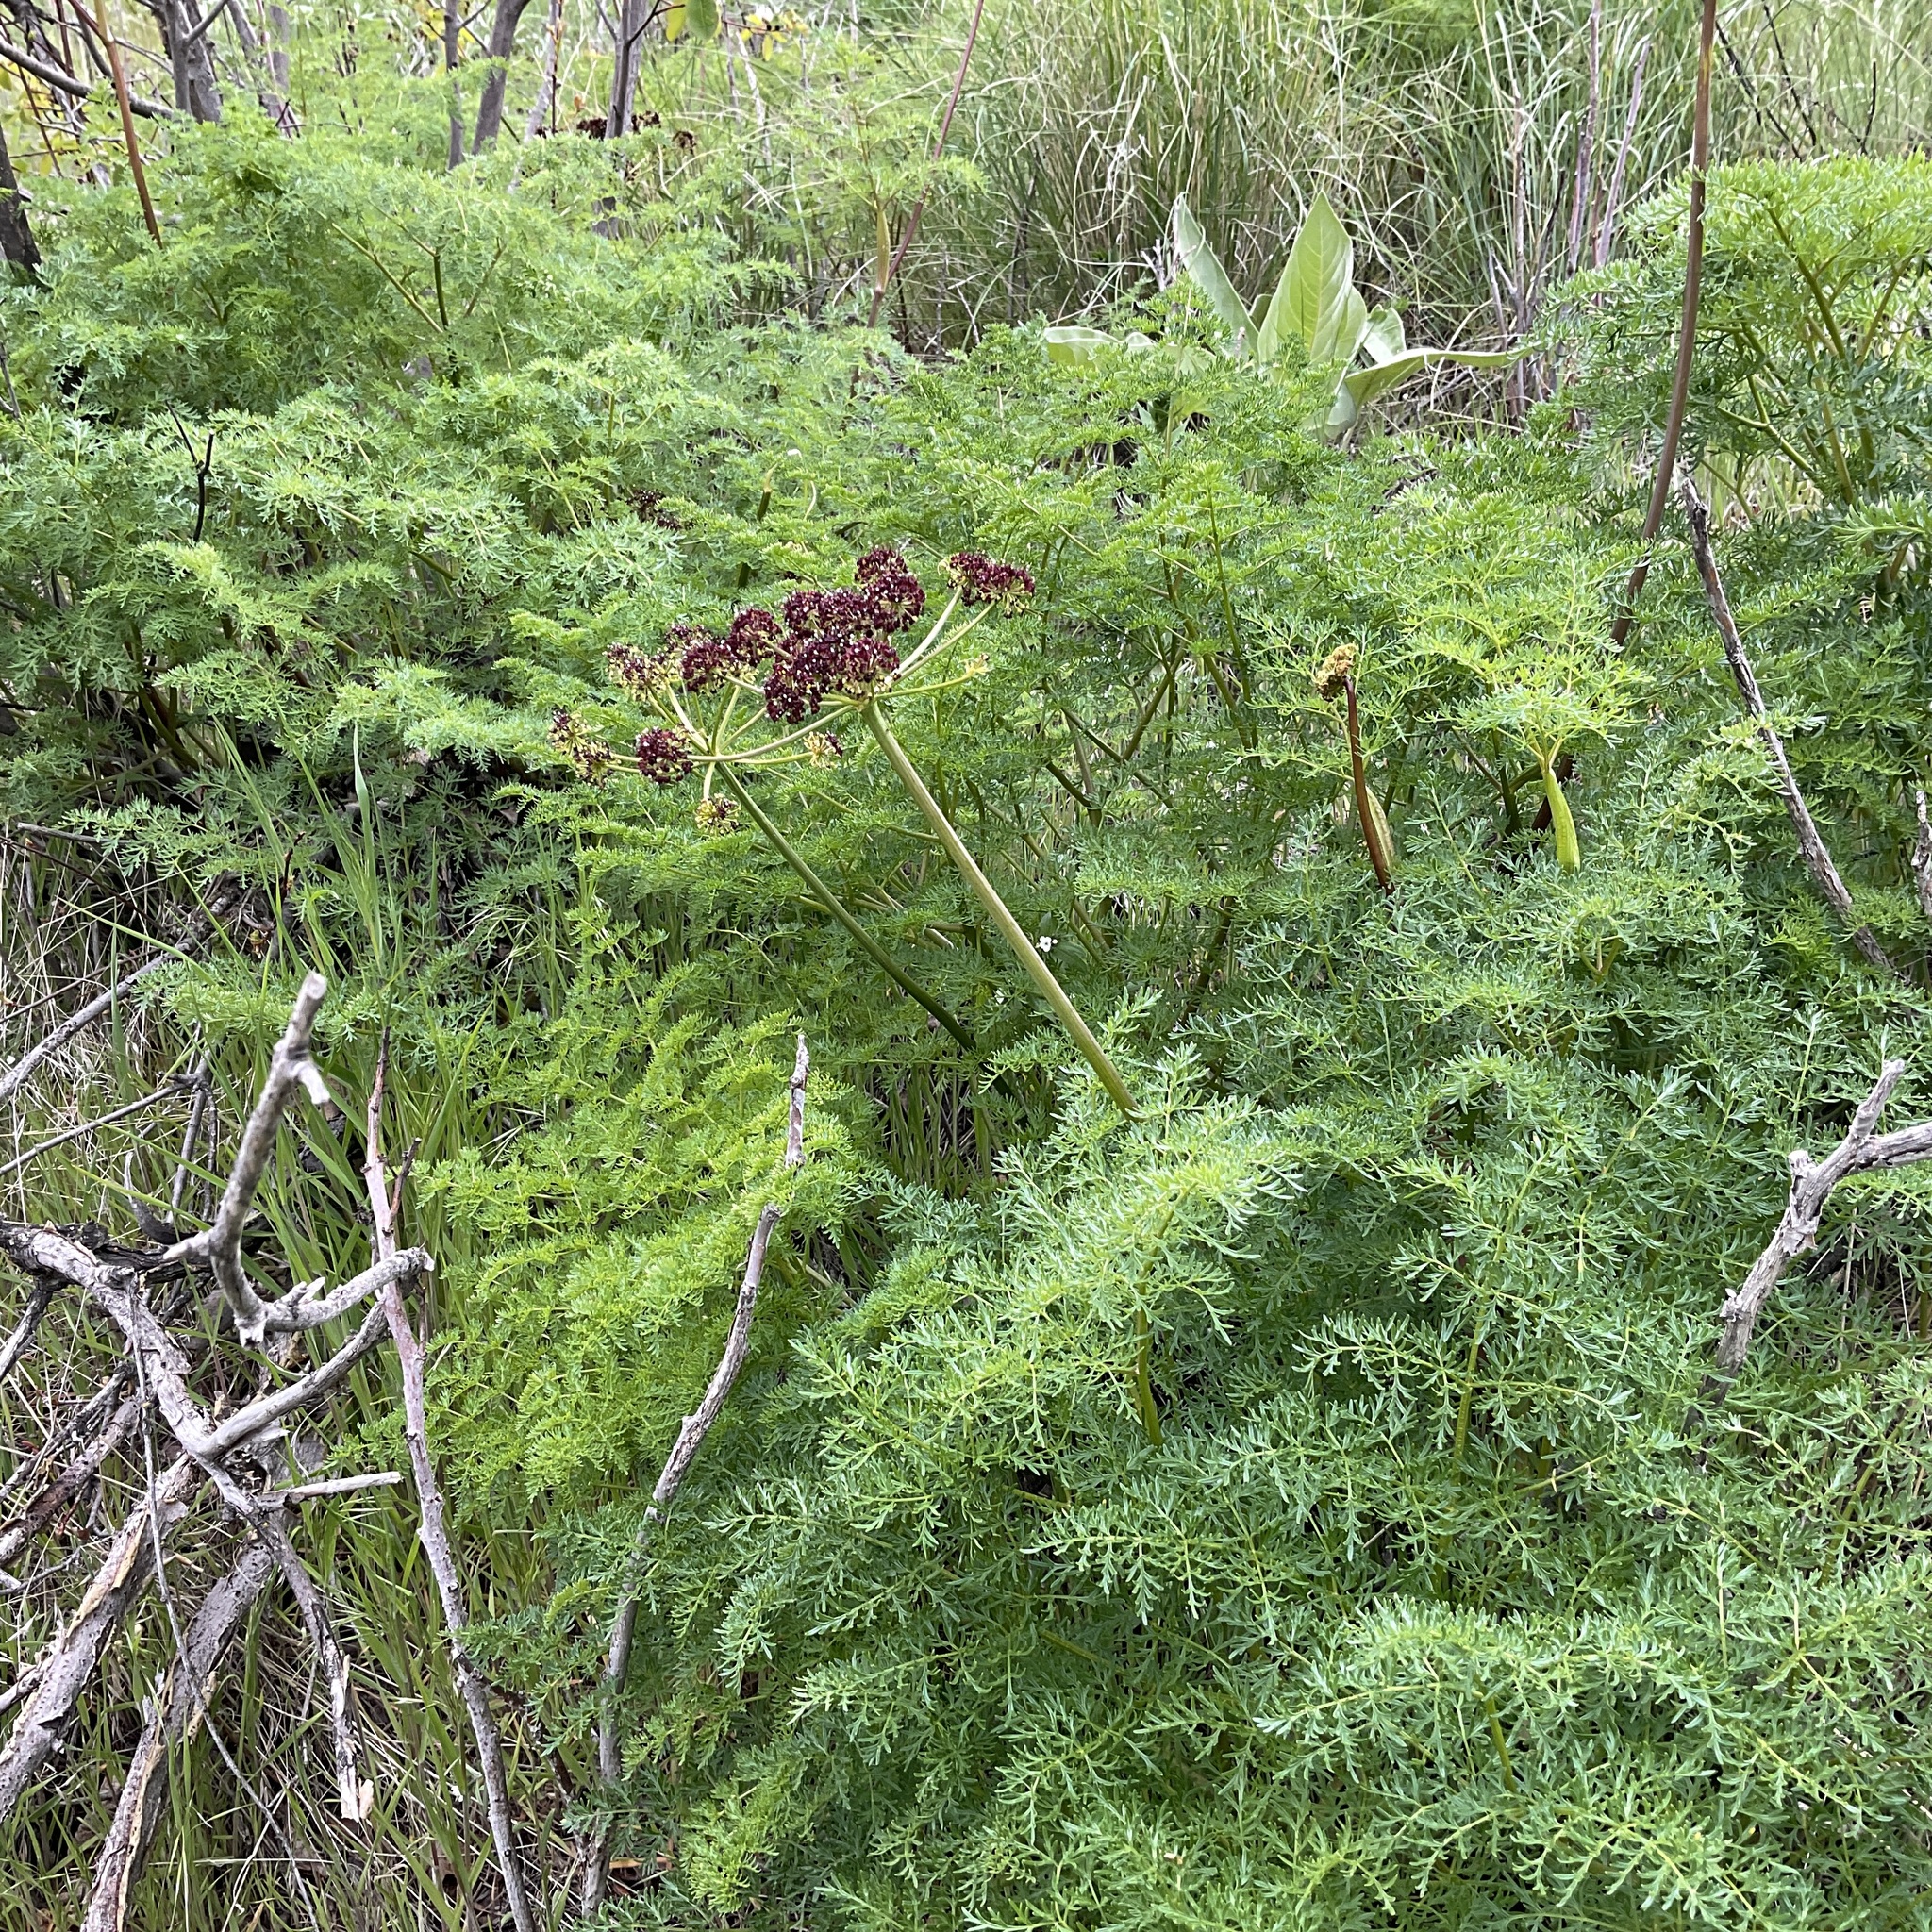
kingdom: Plantae
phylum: Tracheophyta
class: Magnoliopsida
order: Apiales
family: Apiaceae
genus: Lomatium
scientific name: Lomatium multifidum
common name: Carrot-leaved biscuitroot
